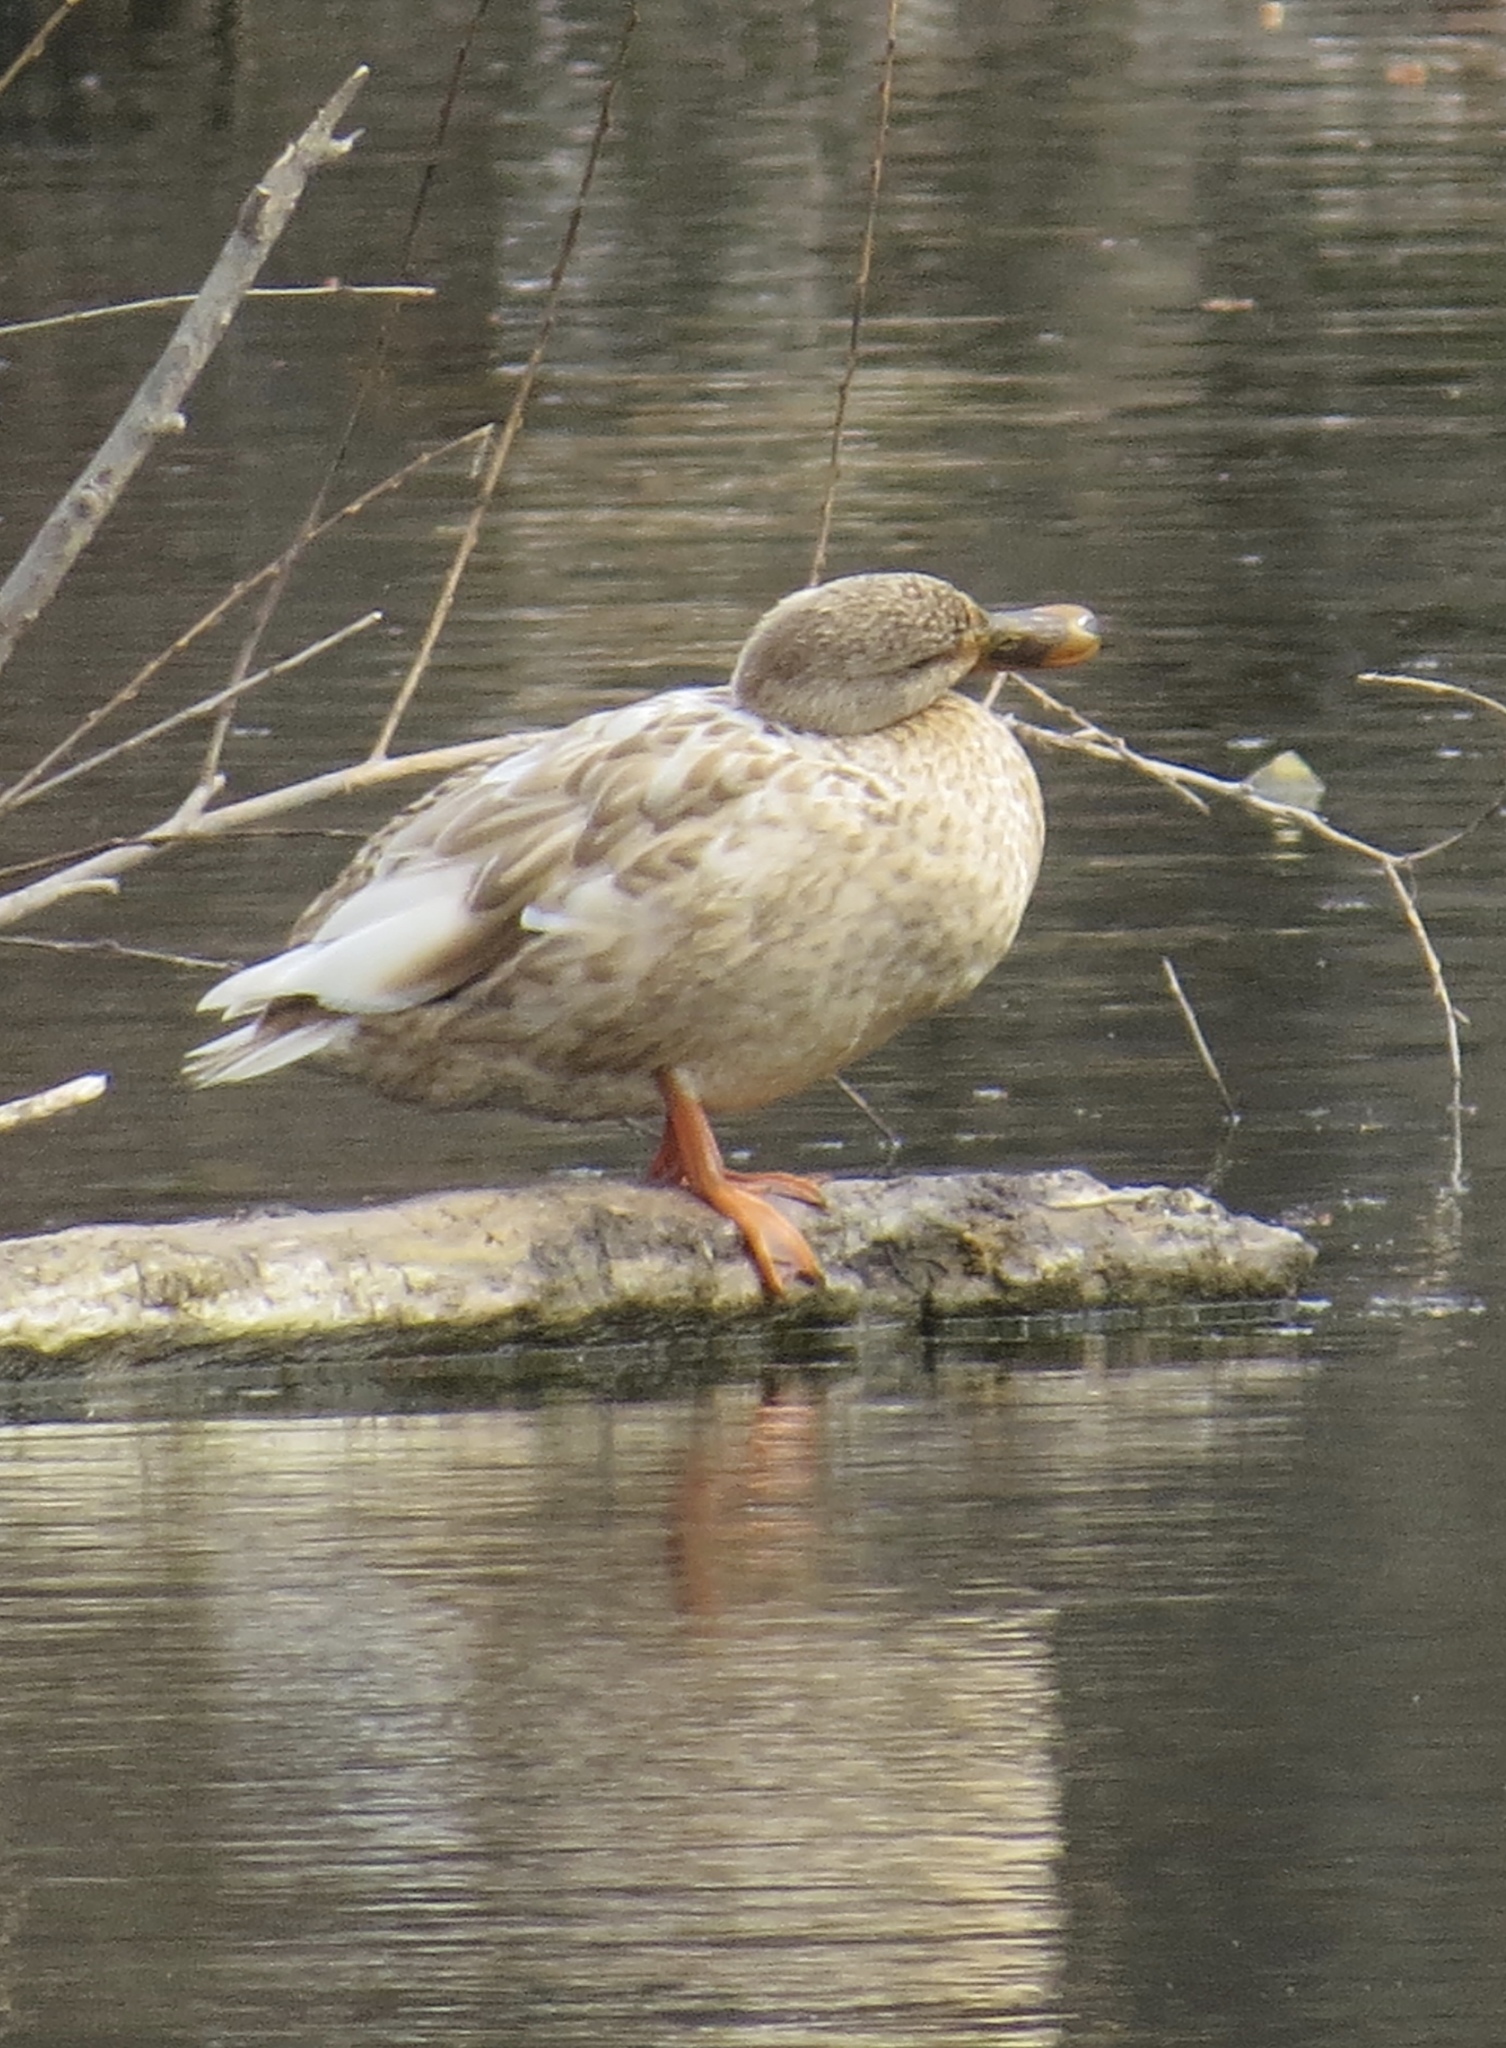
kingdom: Animalia
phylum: Chordata
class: Aves
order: Anseriformes
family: Anatidae
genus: Anas
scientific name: Anas platyrhynchos
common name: Mallard
